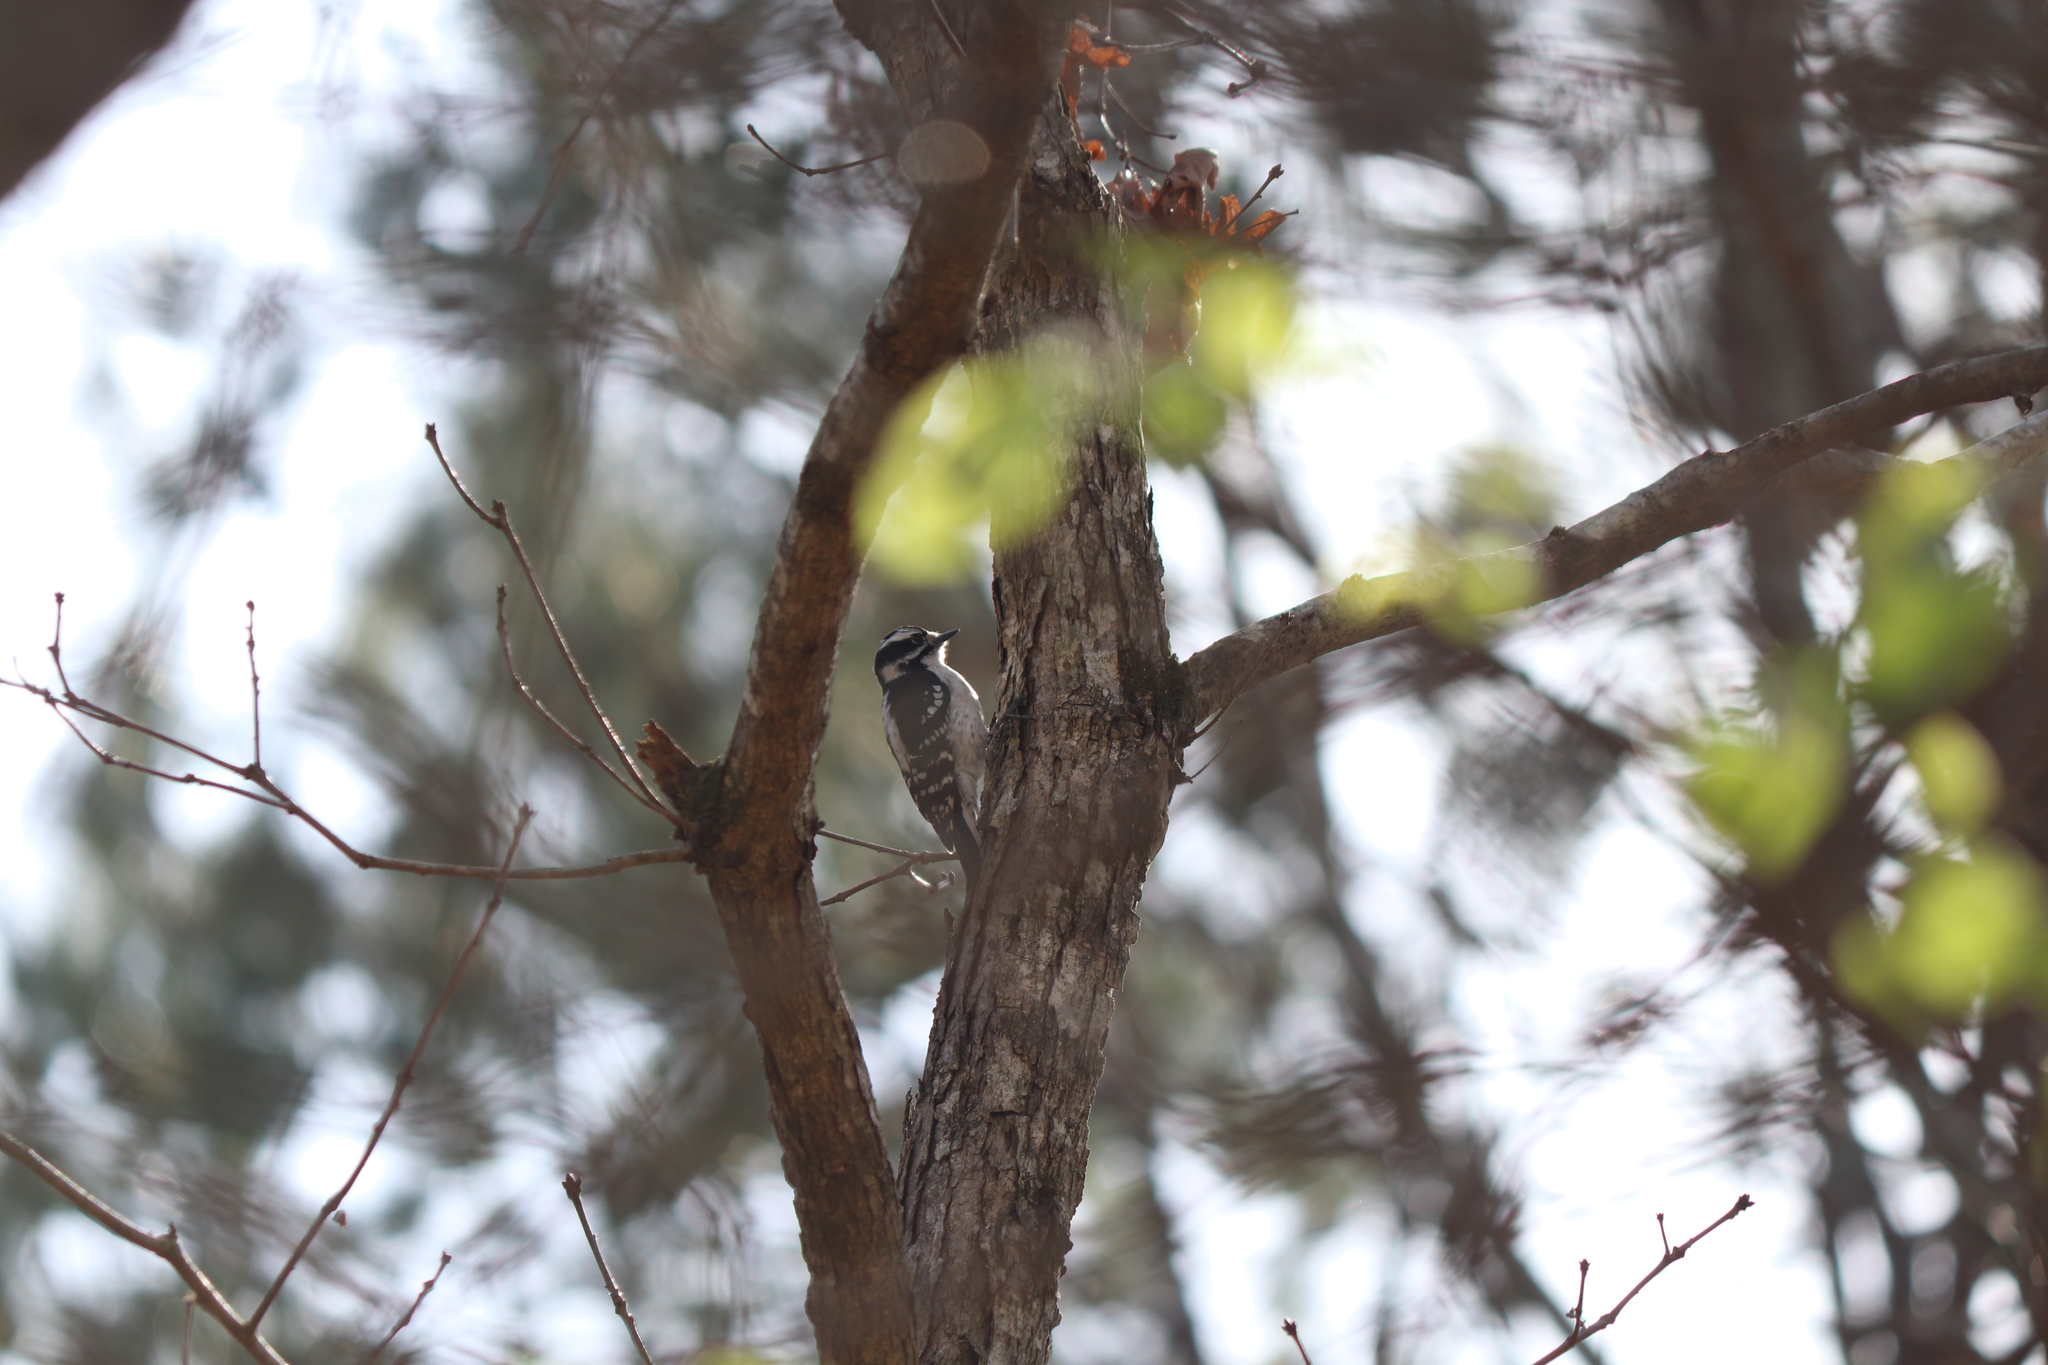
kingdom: Animalia
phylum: Chordata
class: Aves
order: Piciformes
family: Picidae
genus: Dryobates
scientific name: Dryobates pubescens
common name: Downy woodpecker
